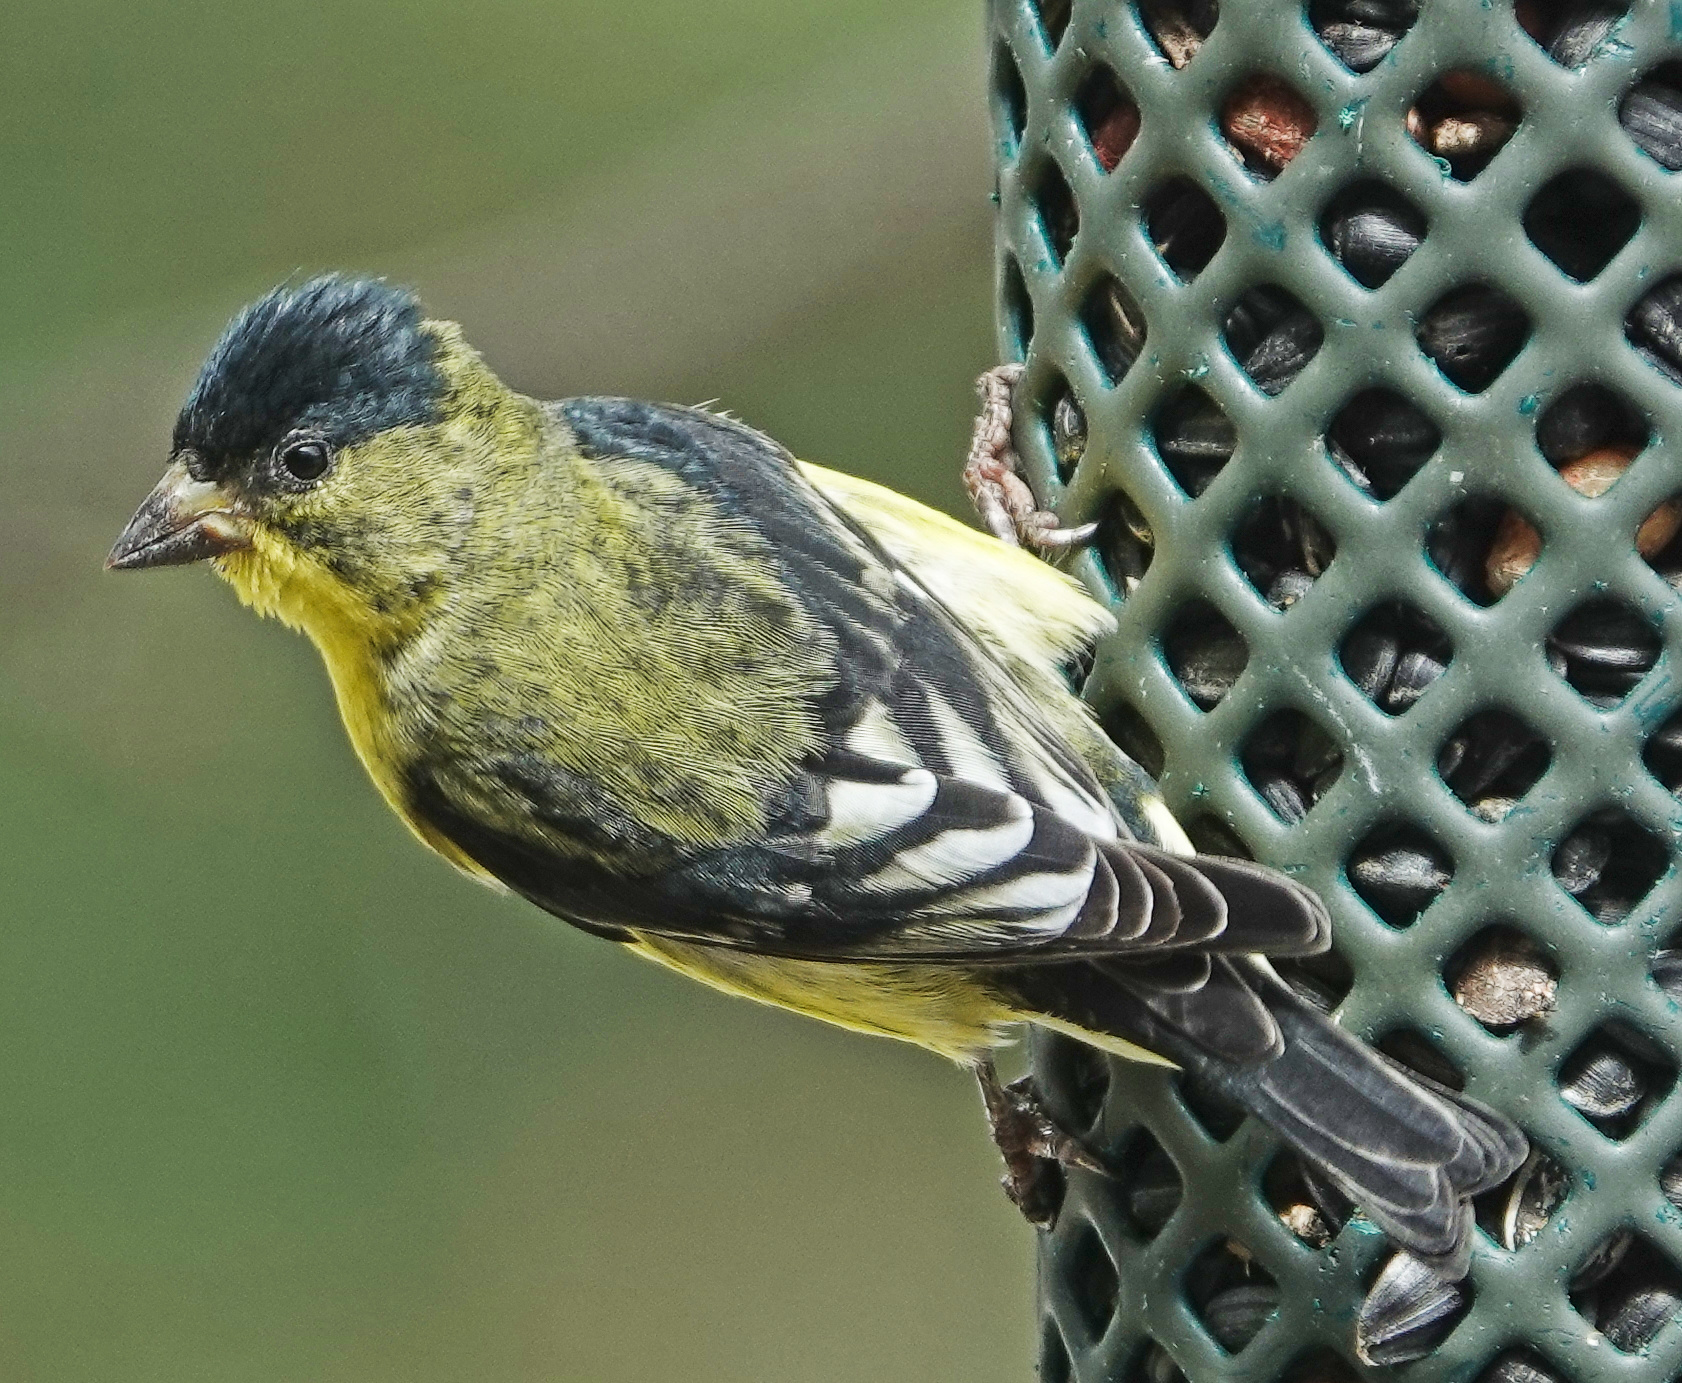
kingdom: Animalia
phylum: Chordata
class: Aves
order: Passeriformes
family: Fringillidae
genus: Spinus
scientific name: Spinus psaltria
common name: Lesser goldfinch
